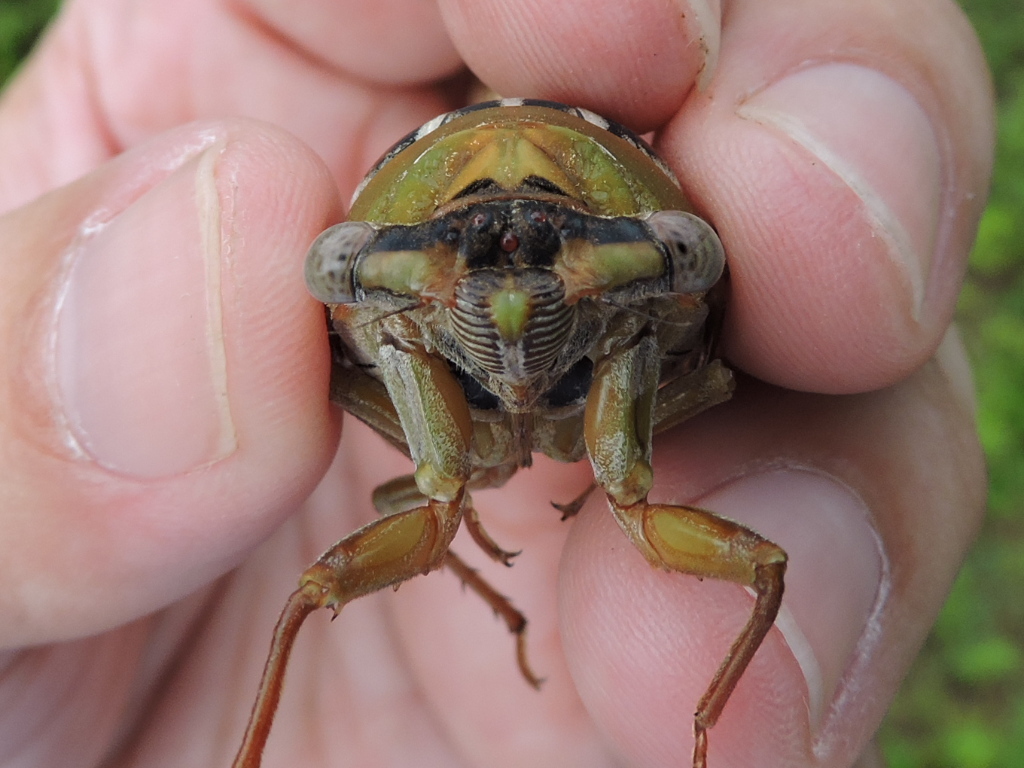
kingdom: Animalia
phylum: Arthropoda
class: Insecta
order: Hemiptera
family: Cicadidae
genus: Megatibicen
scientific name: Megatibicen dealbatus
